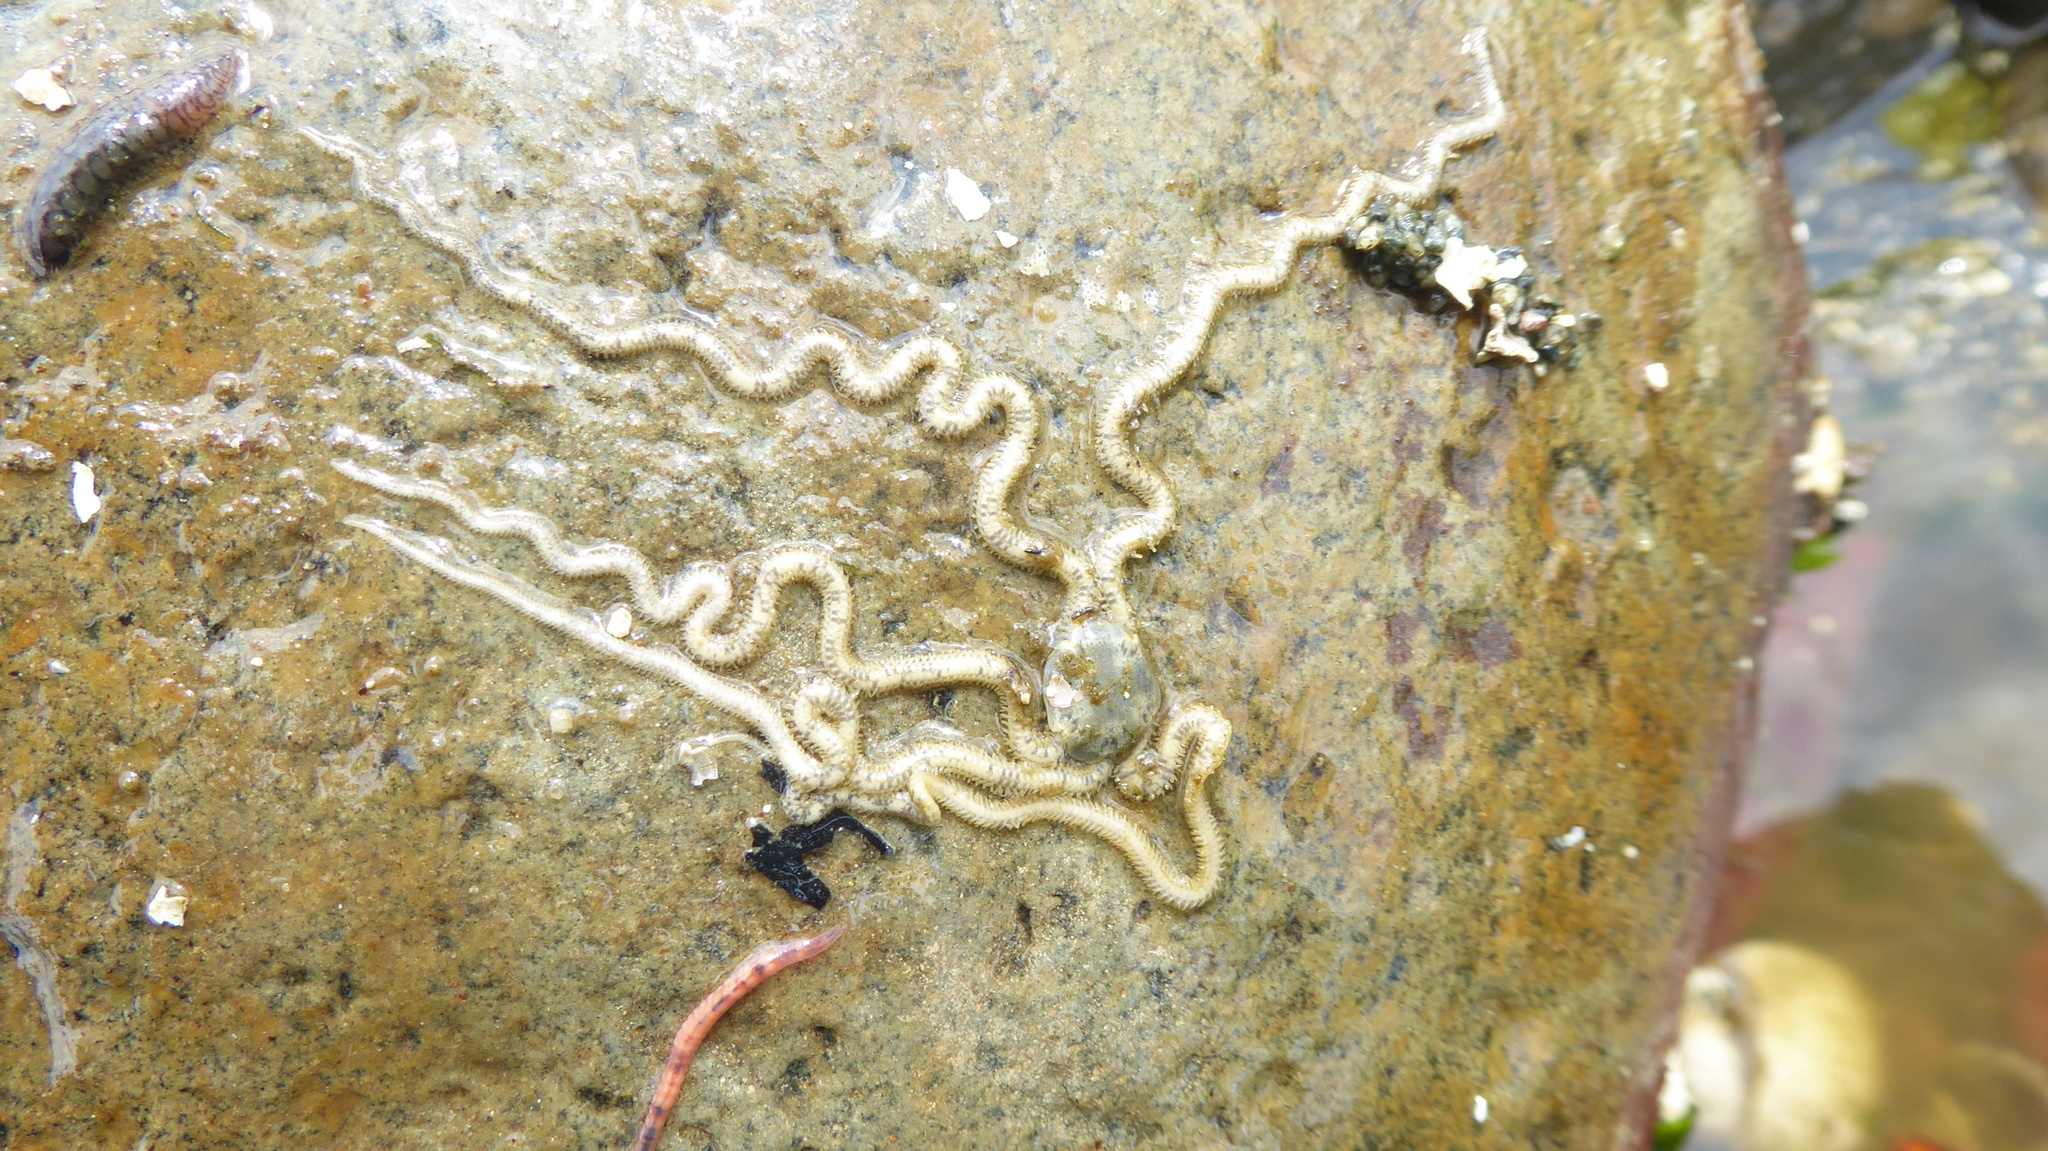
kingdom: Animalia
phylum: Echinodermata
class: Ophiuroidea
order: Amphilepidida
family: Amphiuridae
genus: Amphiodia
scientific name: Amphiodia occidentalis
